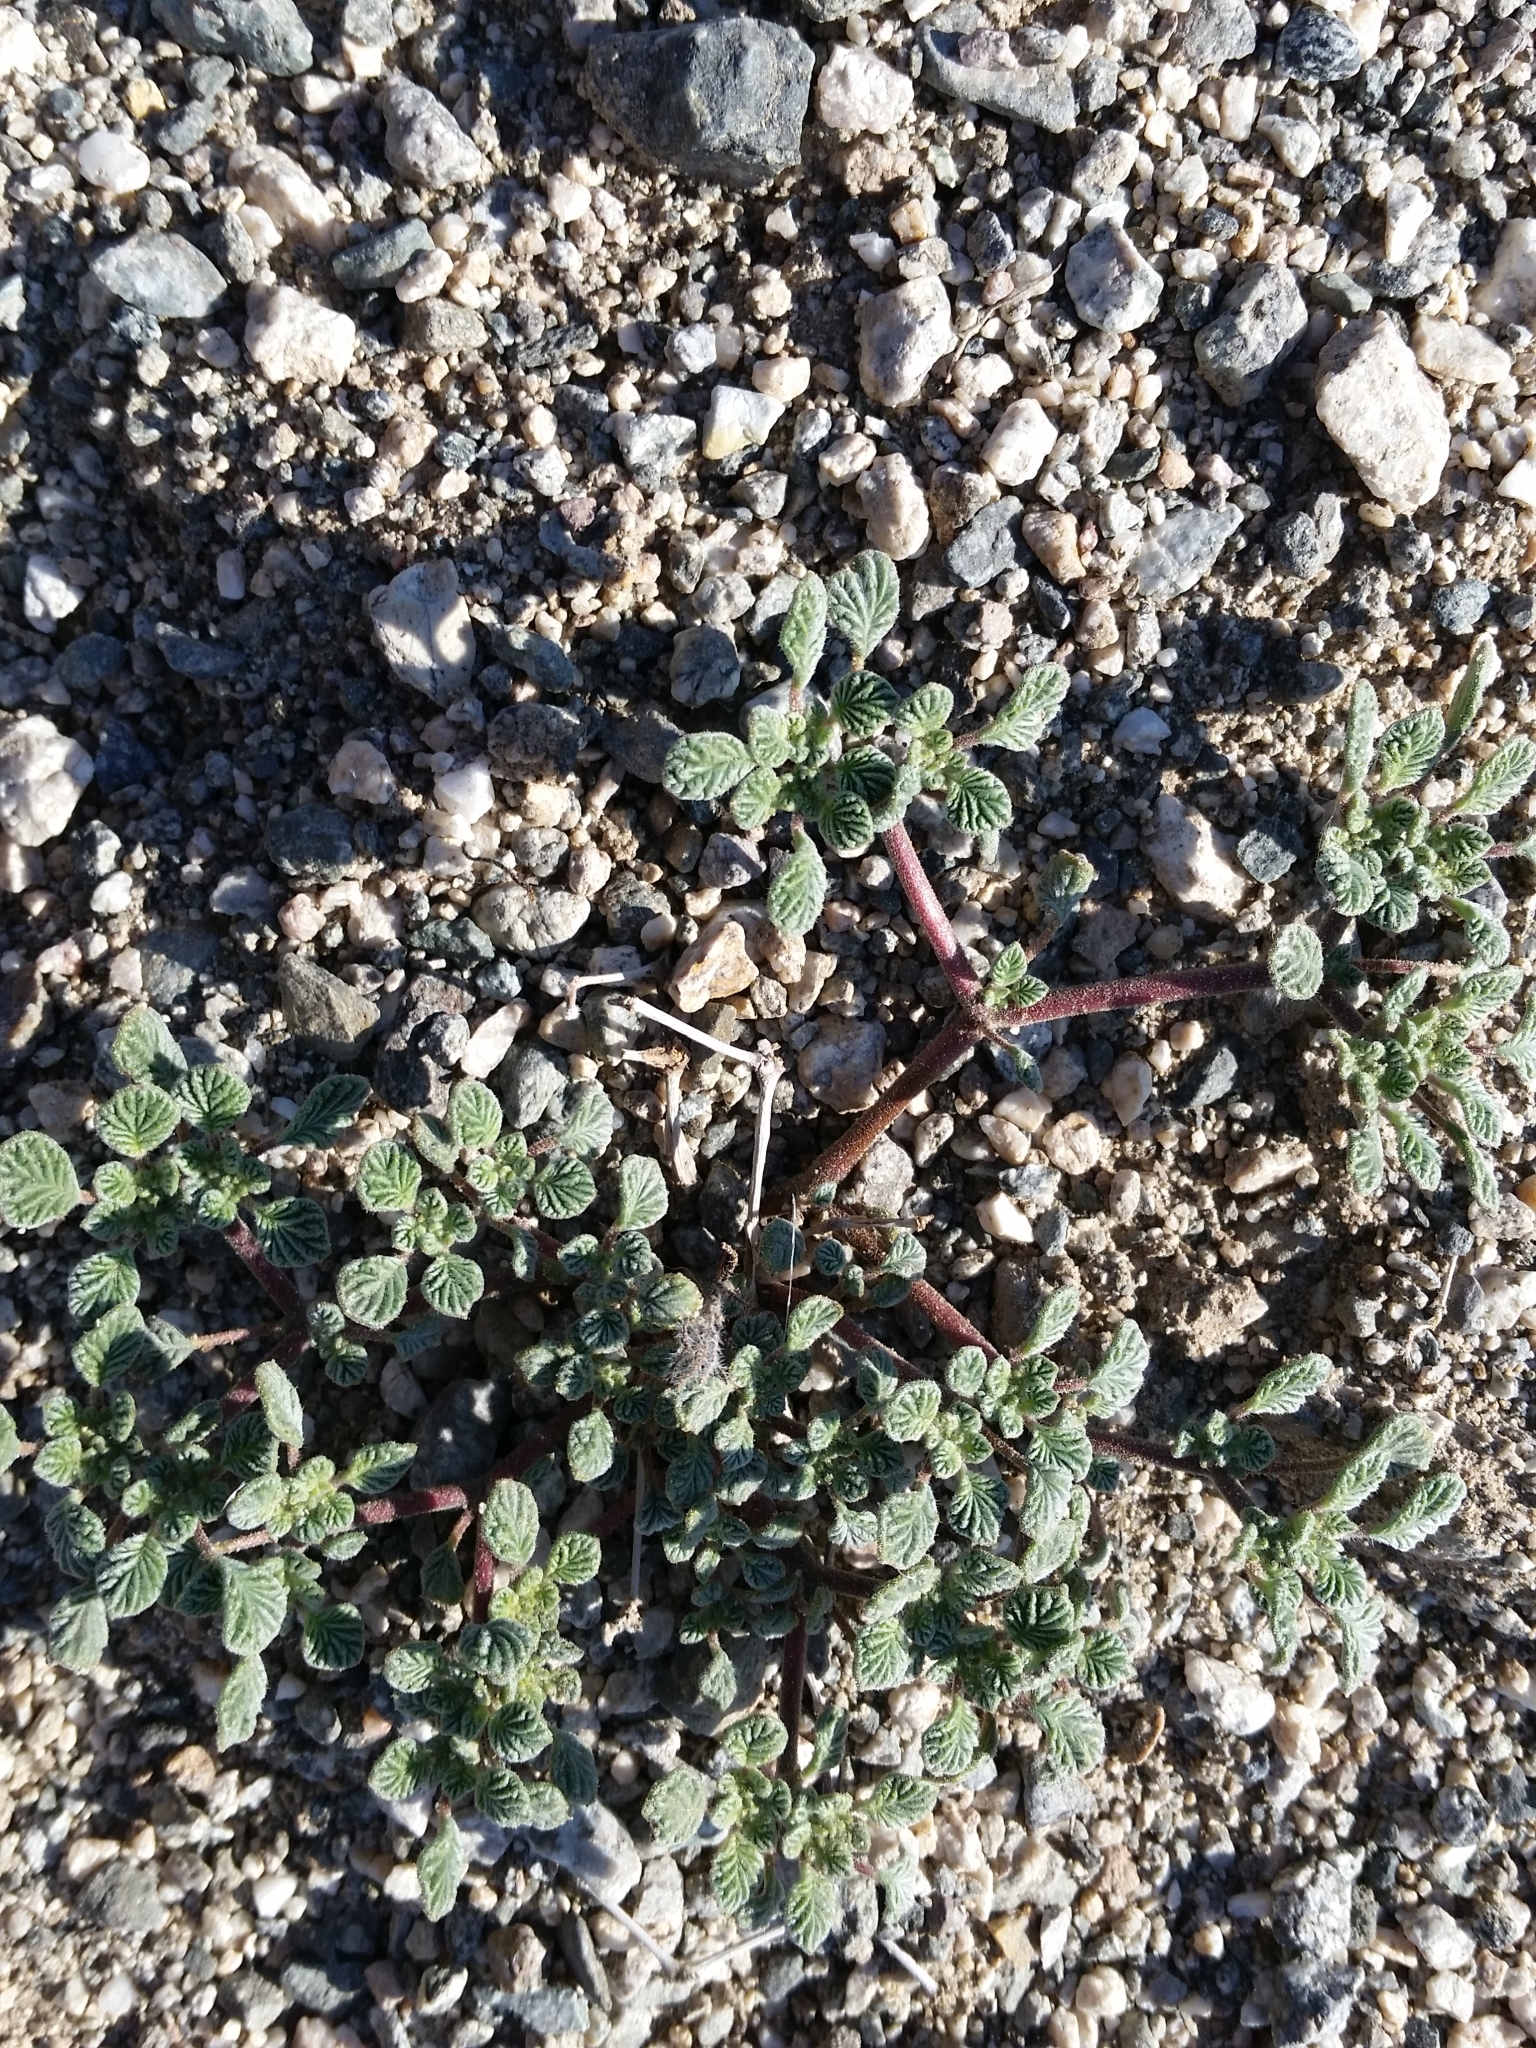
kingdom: Plantae
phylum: Tracheophyta
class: Magnoliopsida
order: Boraginales
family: Ehretiaceae
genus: Tiquilia
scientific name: Tiquilia plicata
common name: Fan-leaf tiquilia
